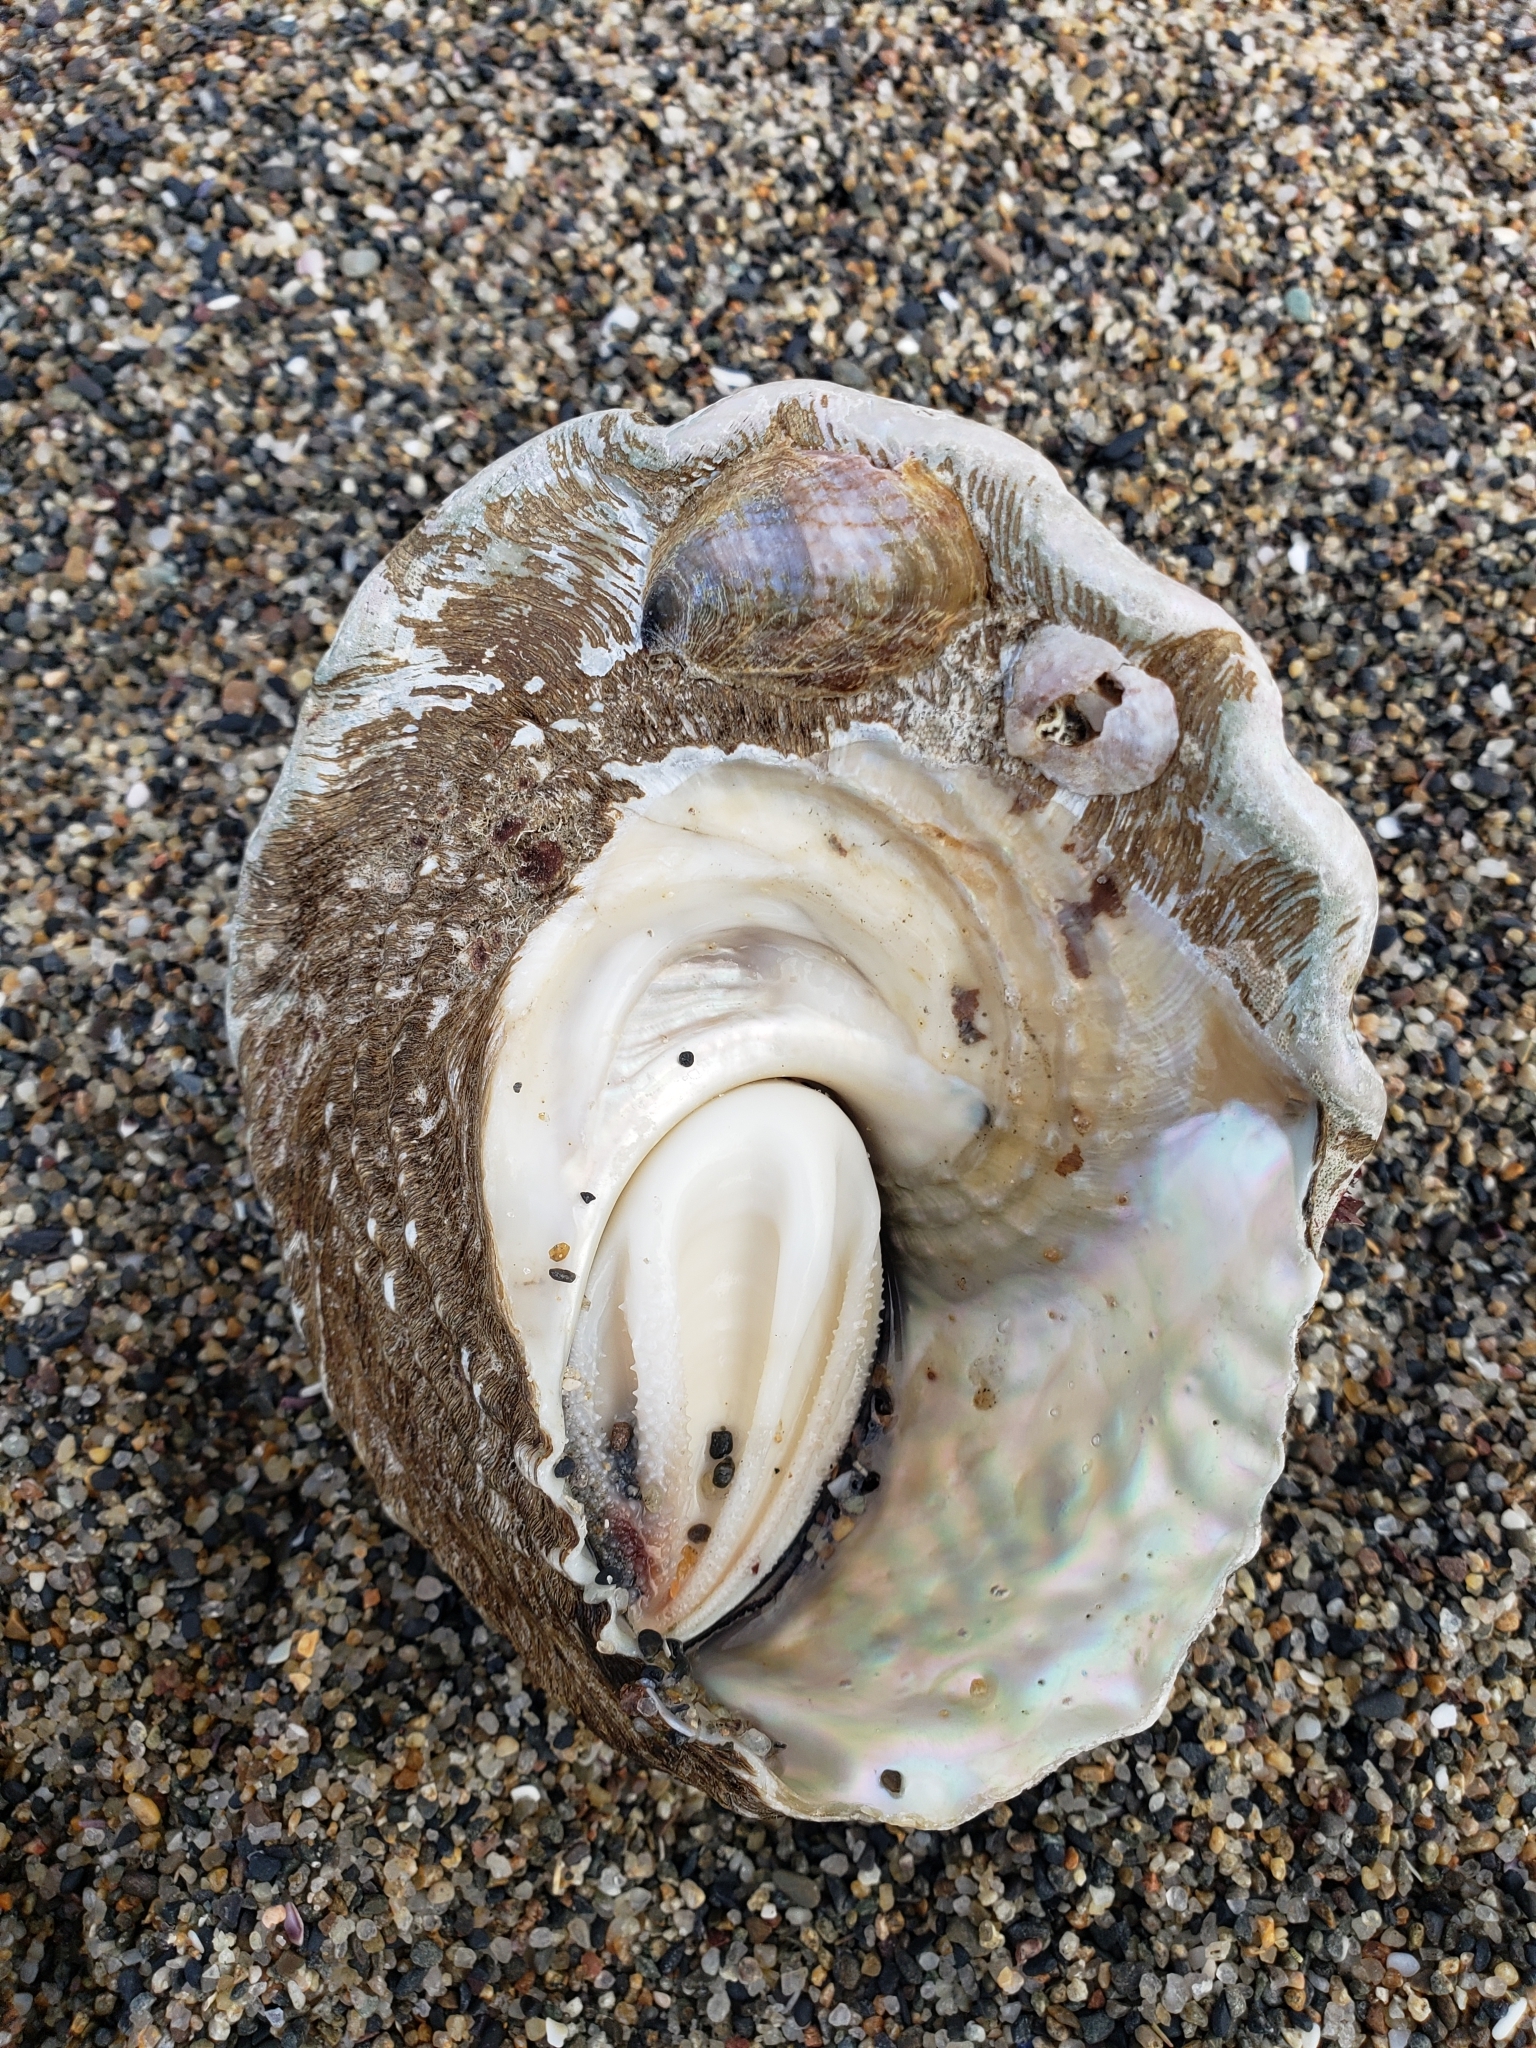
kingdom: Animalia
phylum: Mollusca
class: Gastropoda
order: Trochida
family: Turbinidae
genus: Megastraea
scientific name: Megastraea undosa
